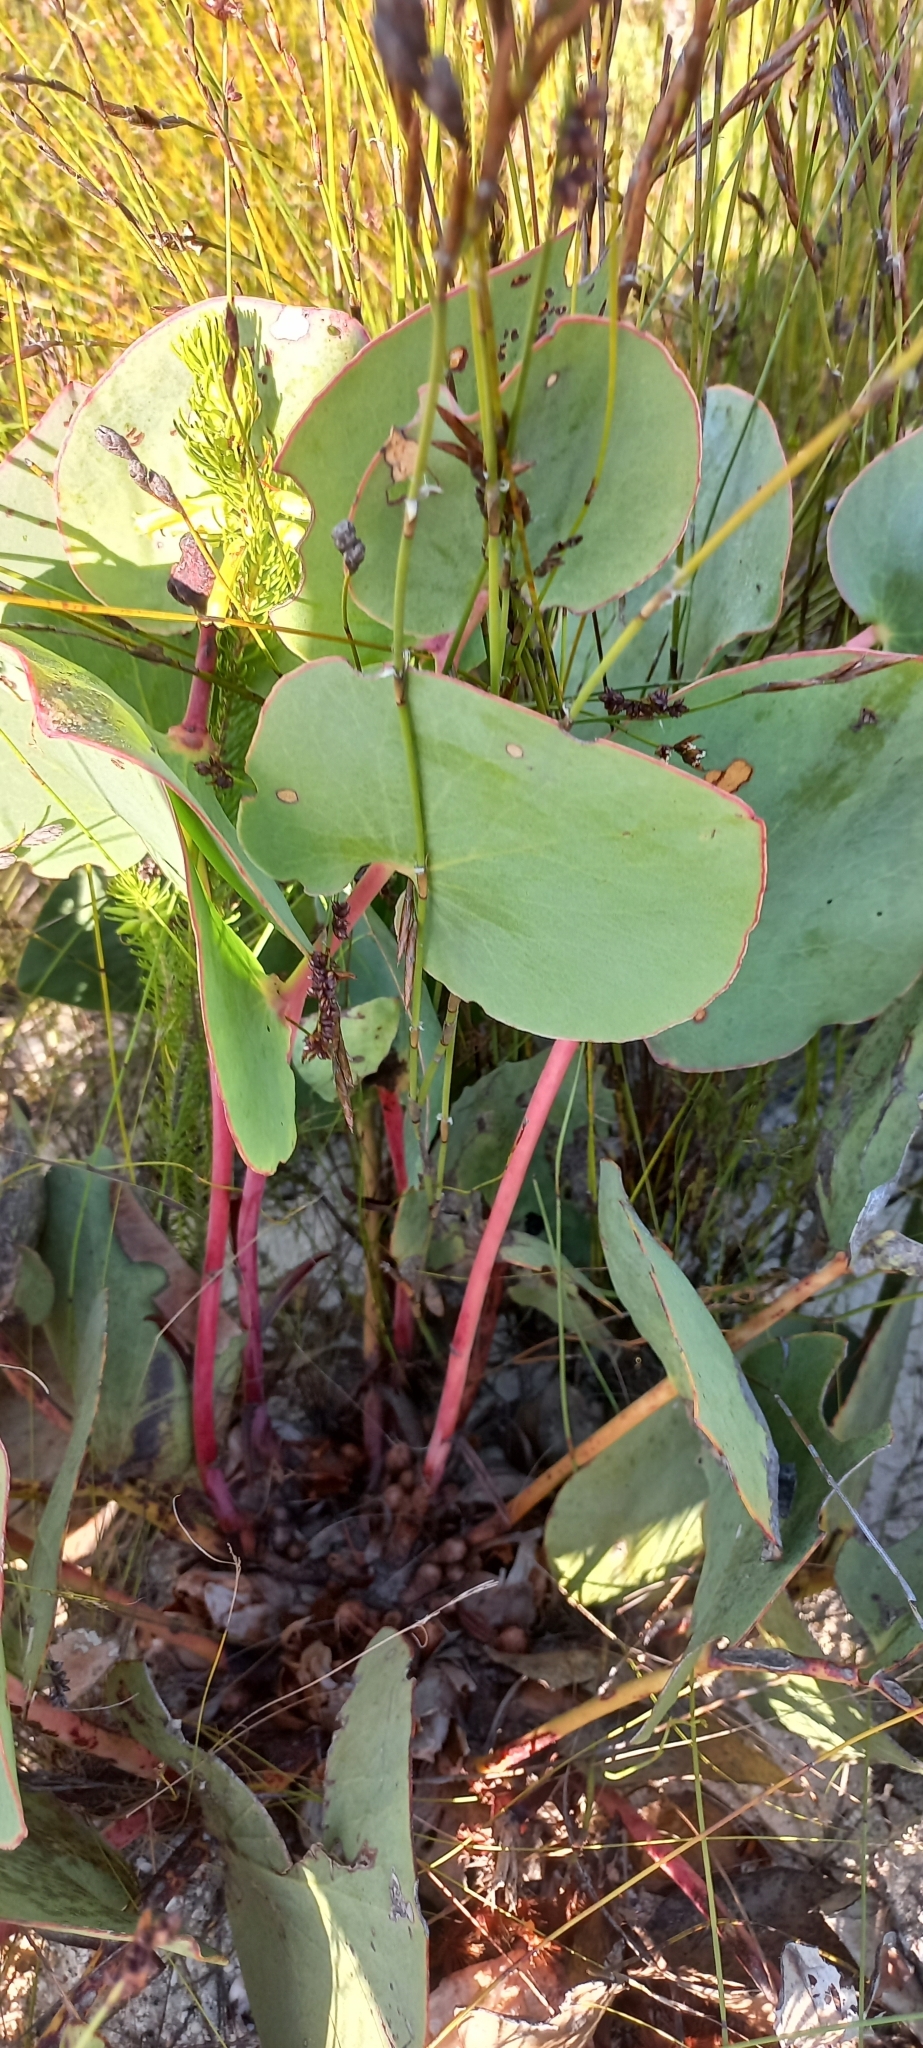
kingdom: Plantae
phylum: Tracheophyta
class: Magnoliopsida
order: Proteales
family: Proteaceae
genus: Protea
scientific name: Protea cordata
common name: Heart-leaf sugarbush
